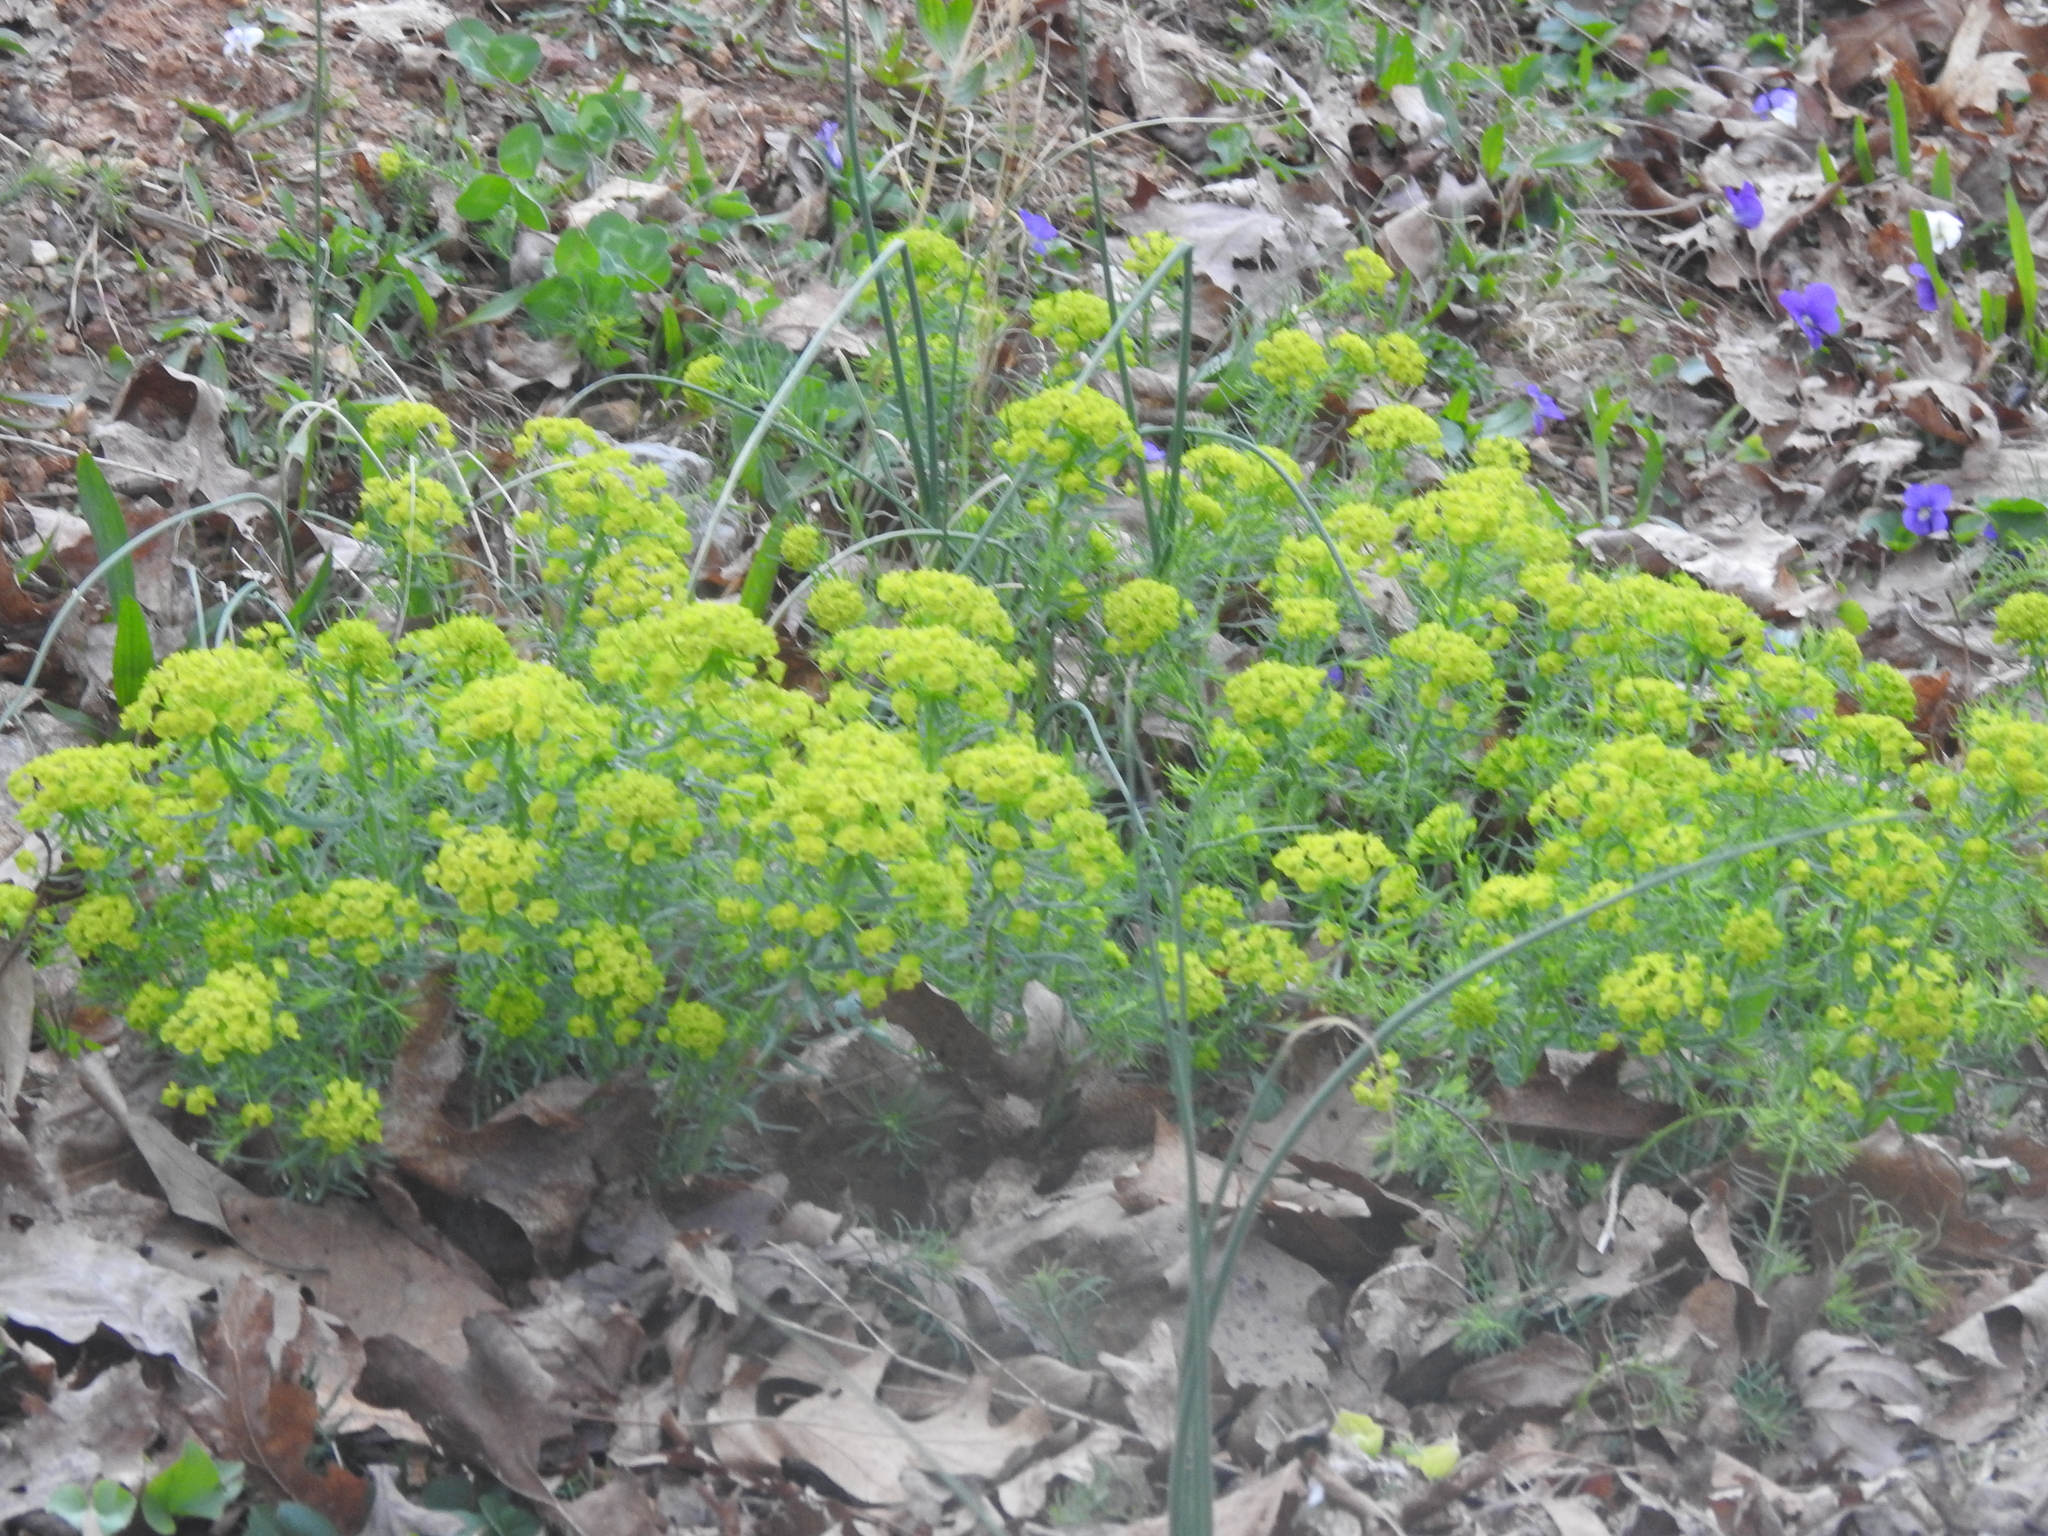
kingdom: Plantae
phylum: Tracheophyta
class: Magnoliopsida
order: Malpighiales
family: Euphorbiaceae
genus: Euphorbia
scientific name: Euphorbia cyparissias
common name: Cypress spurge
